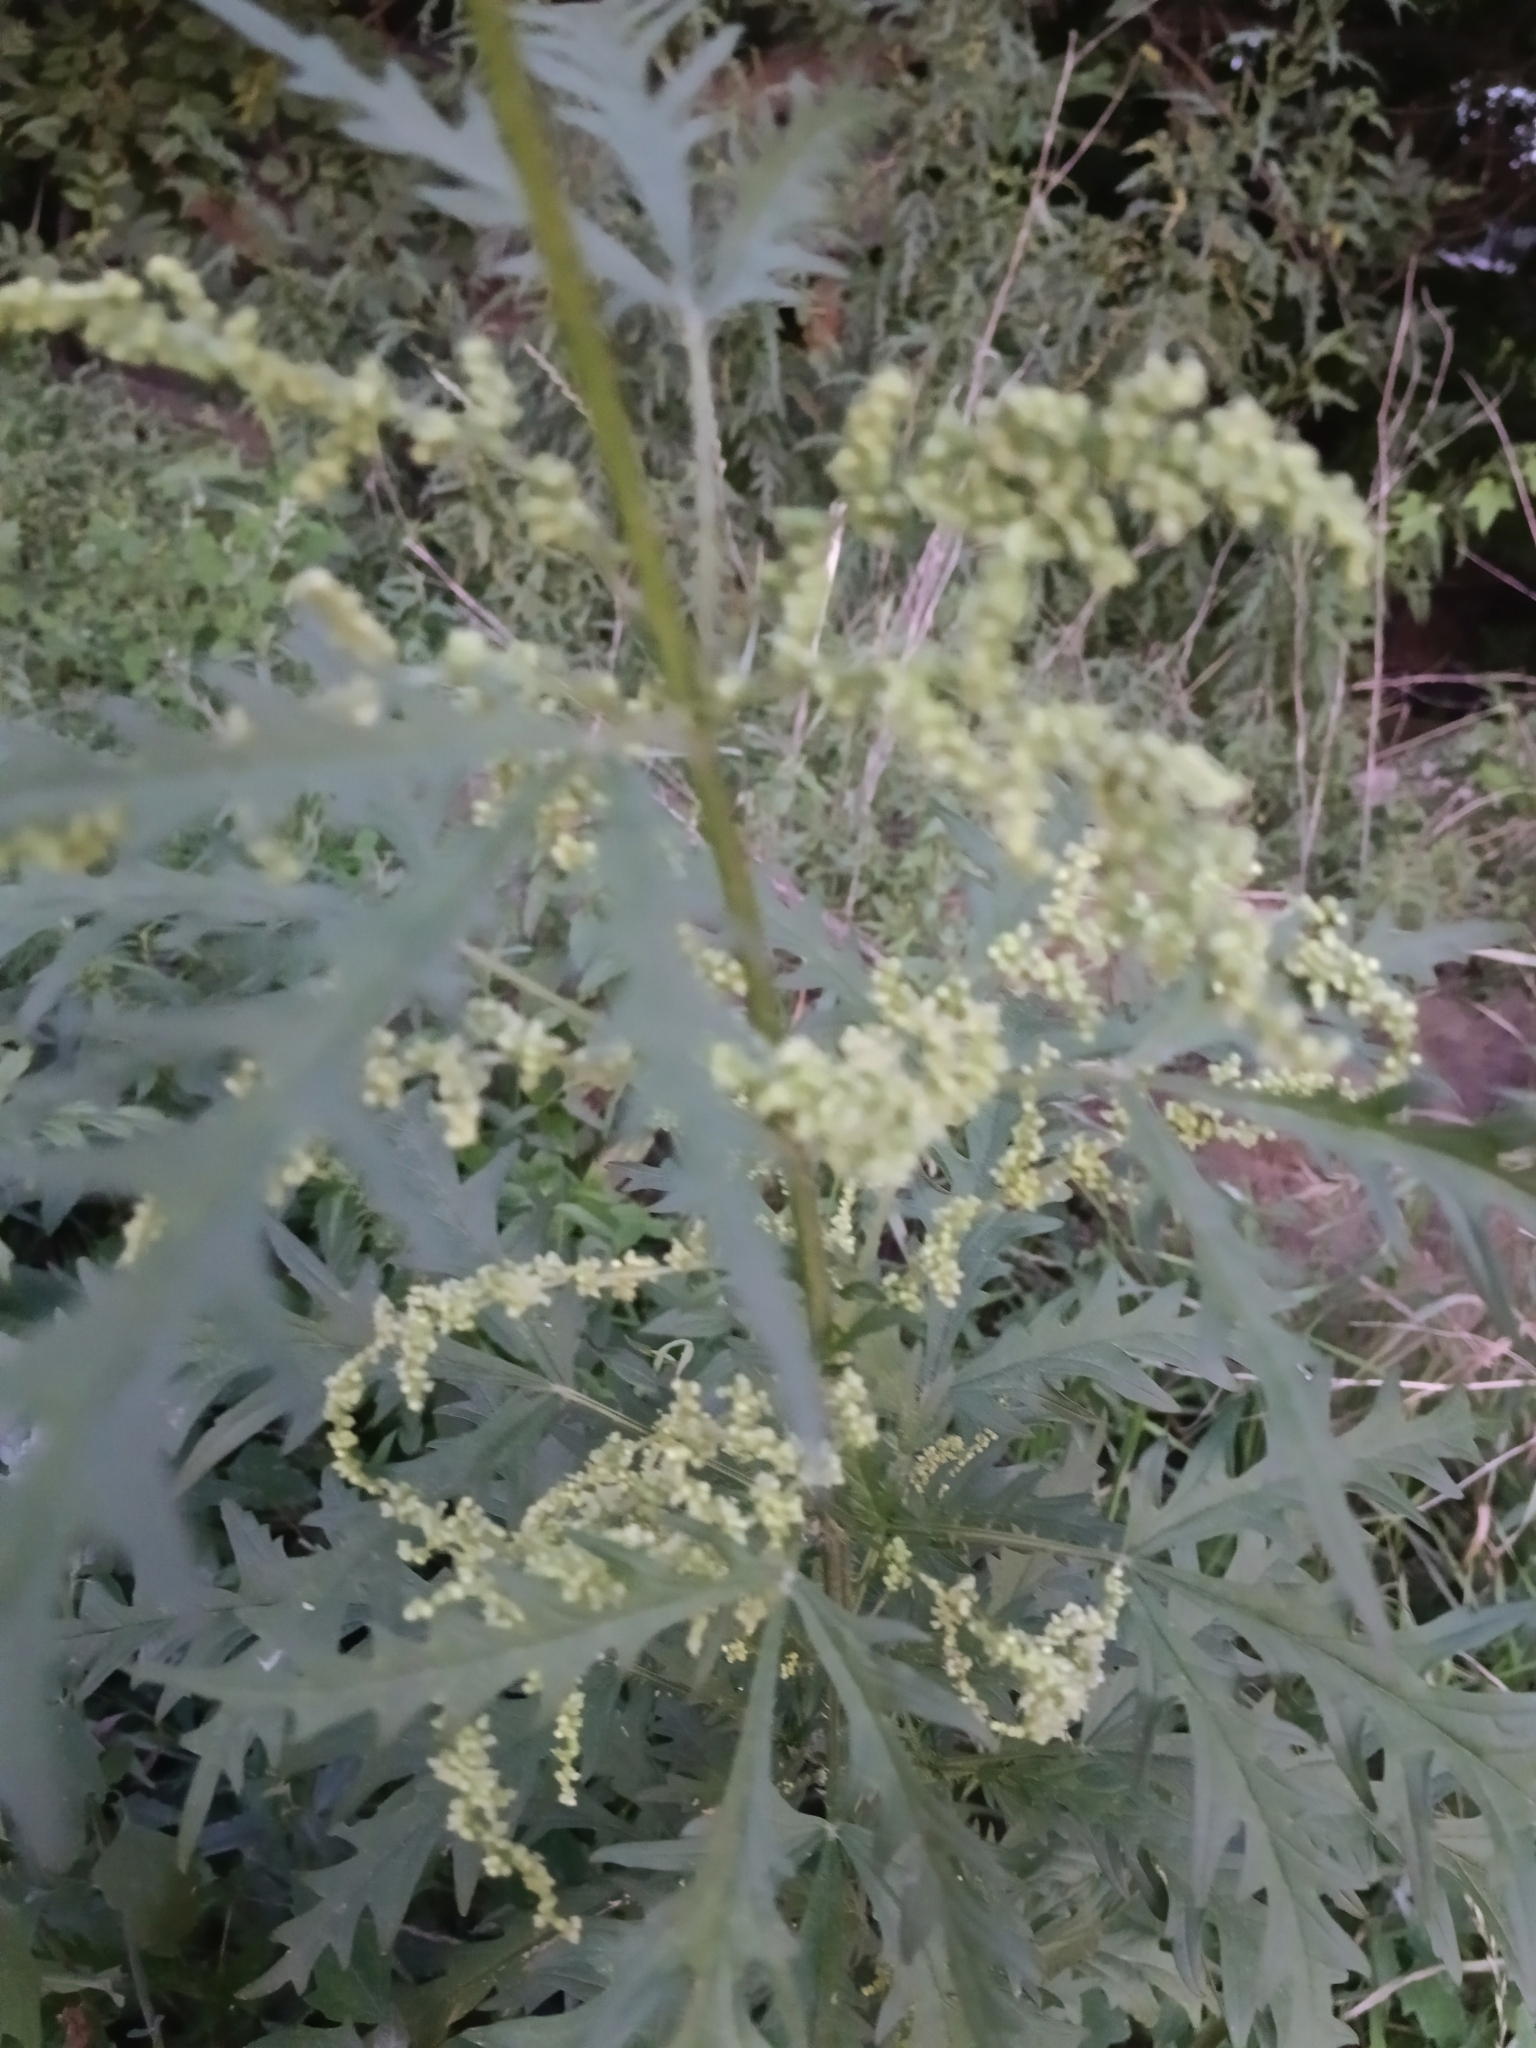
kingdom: Plantae
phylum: Tracheophyta
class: Magnoliopsida
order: Rosales
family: Urticaceae
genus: Urtica
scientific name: Urtica cannabina
